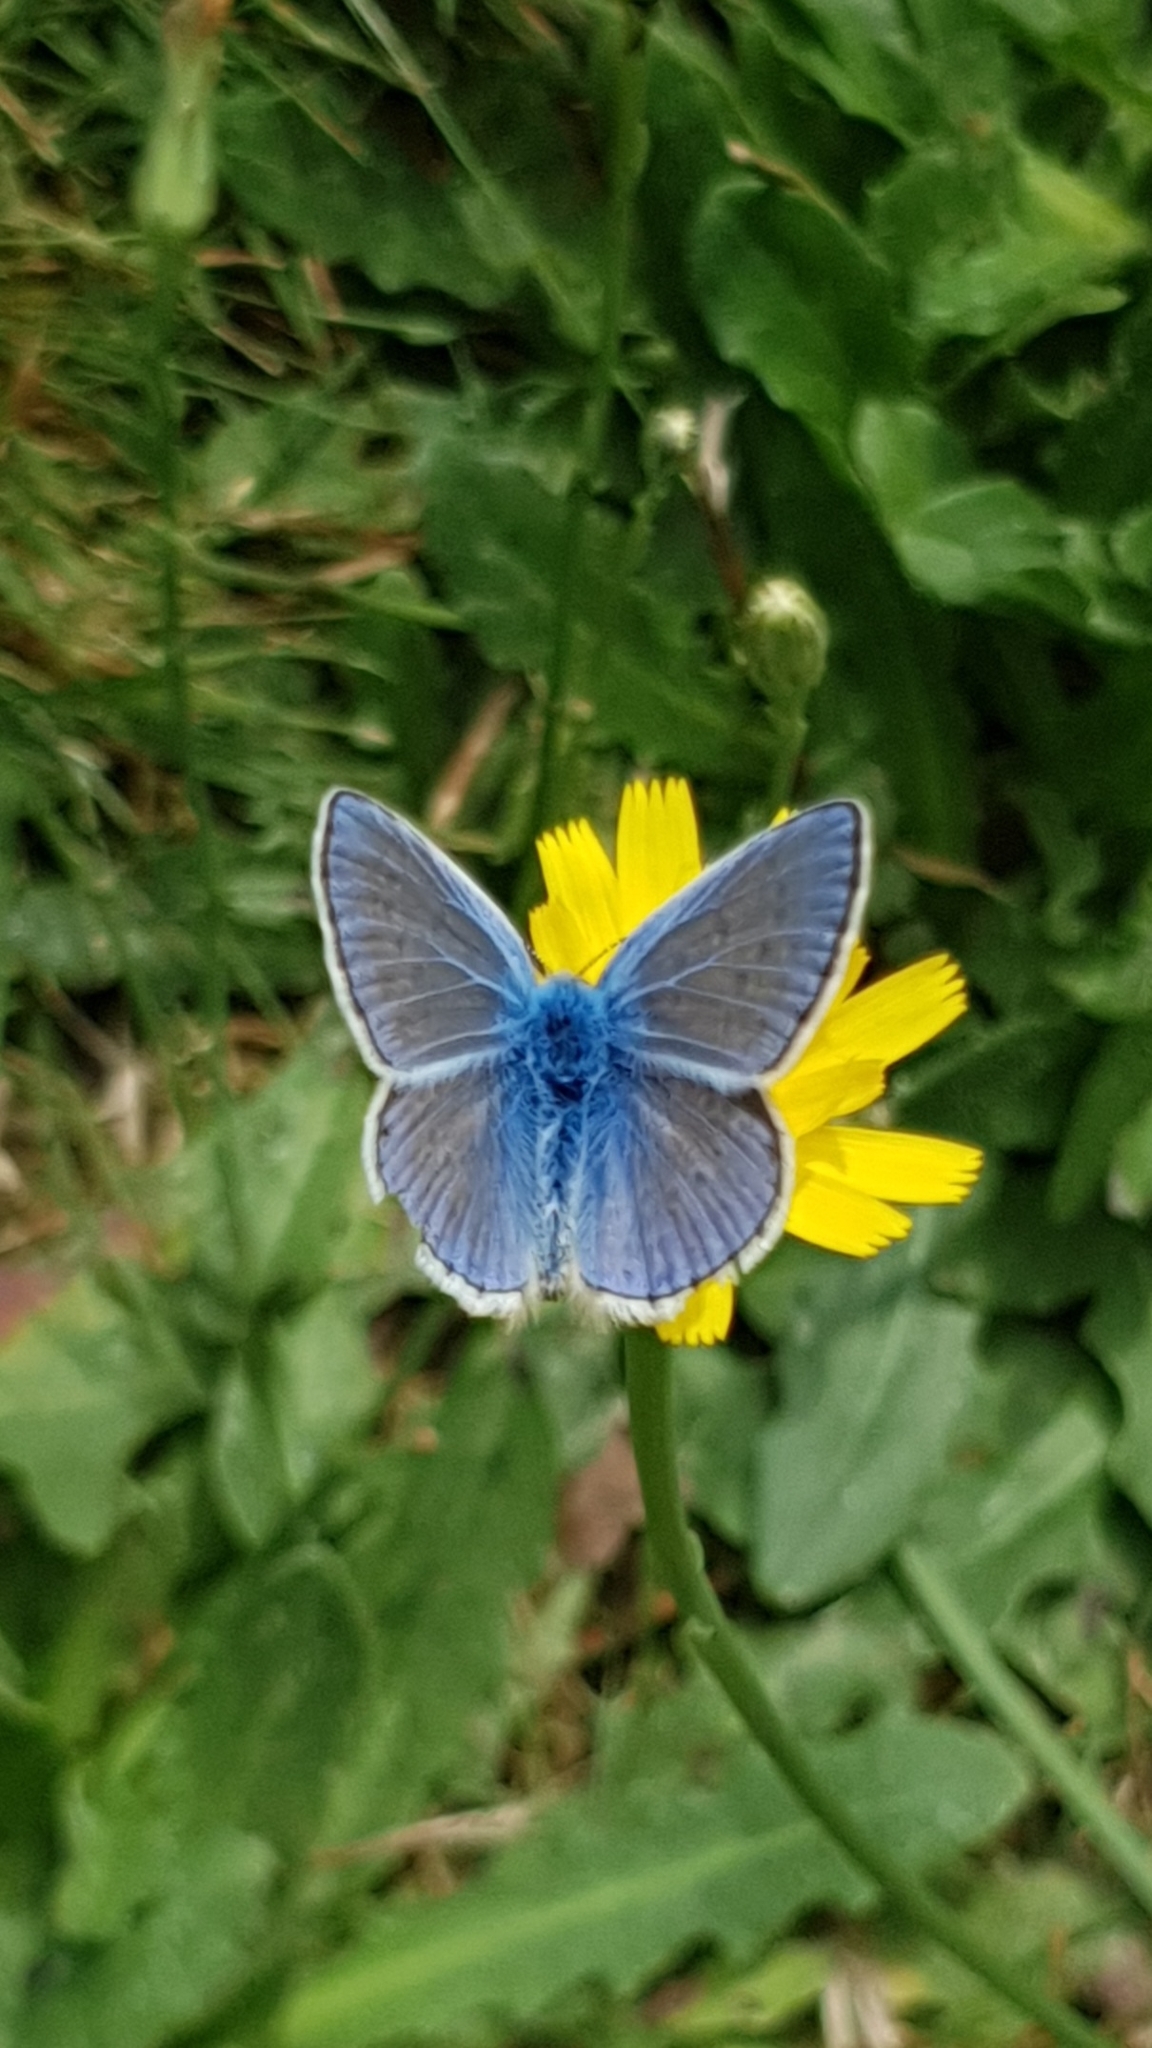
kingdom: Animalia
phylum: Arthropoda
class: Insecta
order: Lepidoptera
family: Lycaenidae
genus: Polyommatus
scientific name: Polyommatus icarus
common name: Common blue
